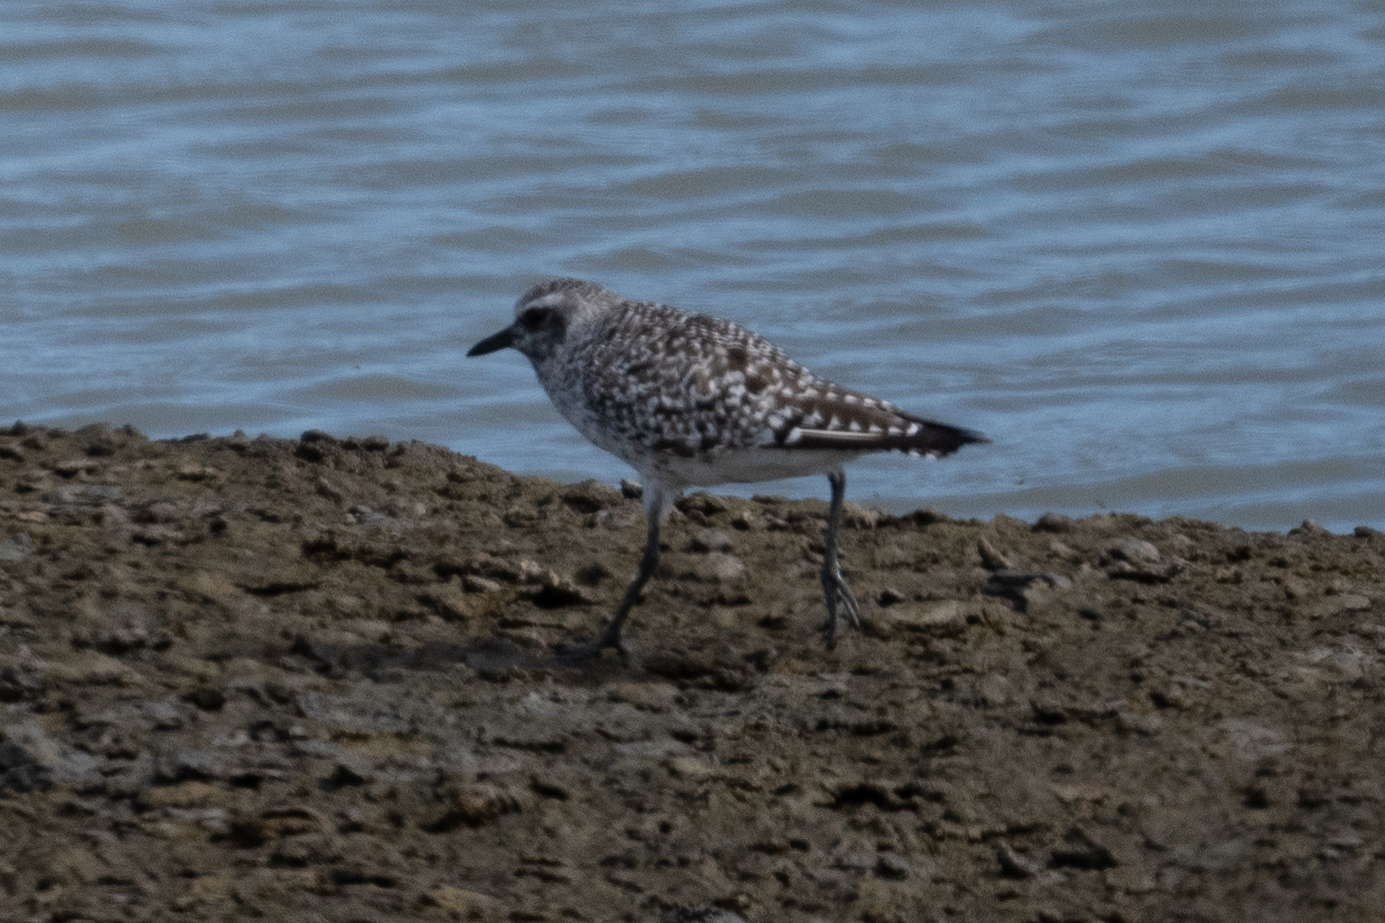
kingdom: Animalia
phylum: Chordata
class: Aves
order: Charadriiformes
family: Charadriidae
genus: Pluvialis
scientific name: Pluvialis squatarola
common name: Grey plover
